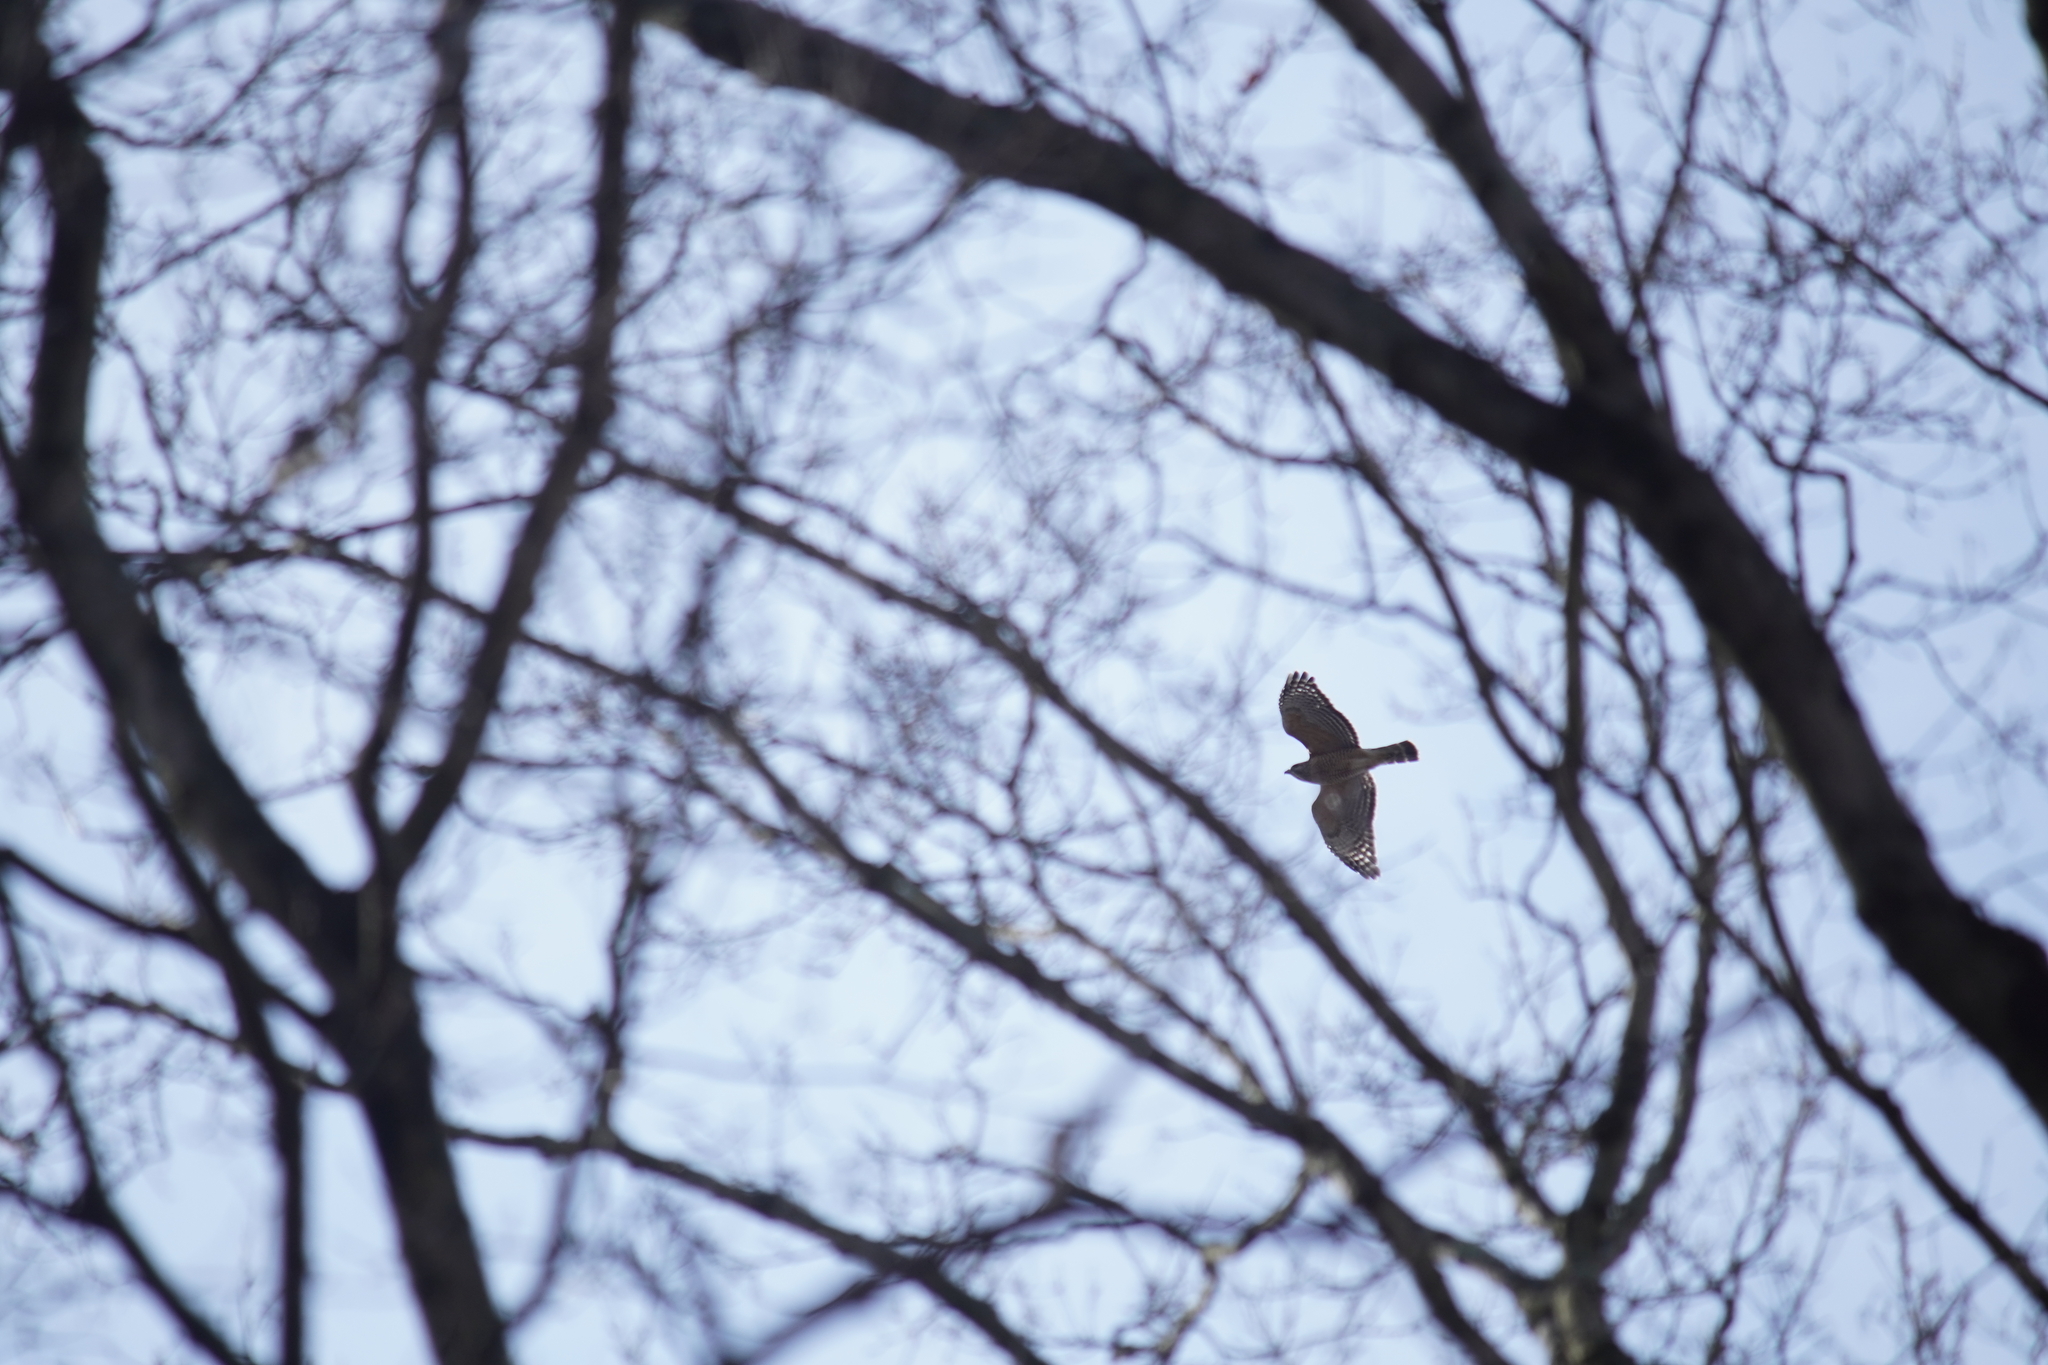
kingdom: Animalia
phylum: Chordata
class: Aves
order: Accipitriformes
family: Accipitridae
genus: Buteo
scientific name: Buteo lineatus
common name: Red-shouldered hawk
